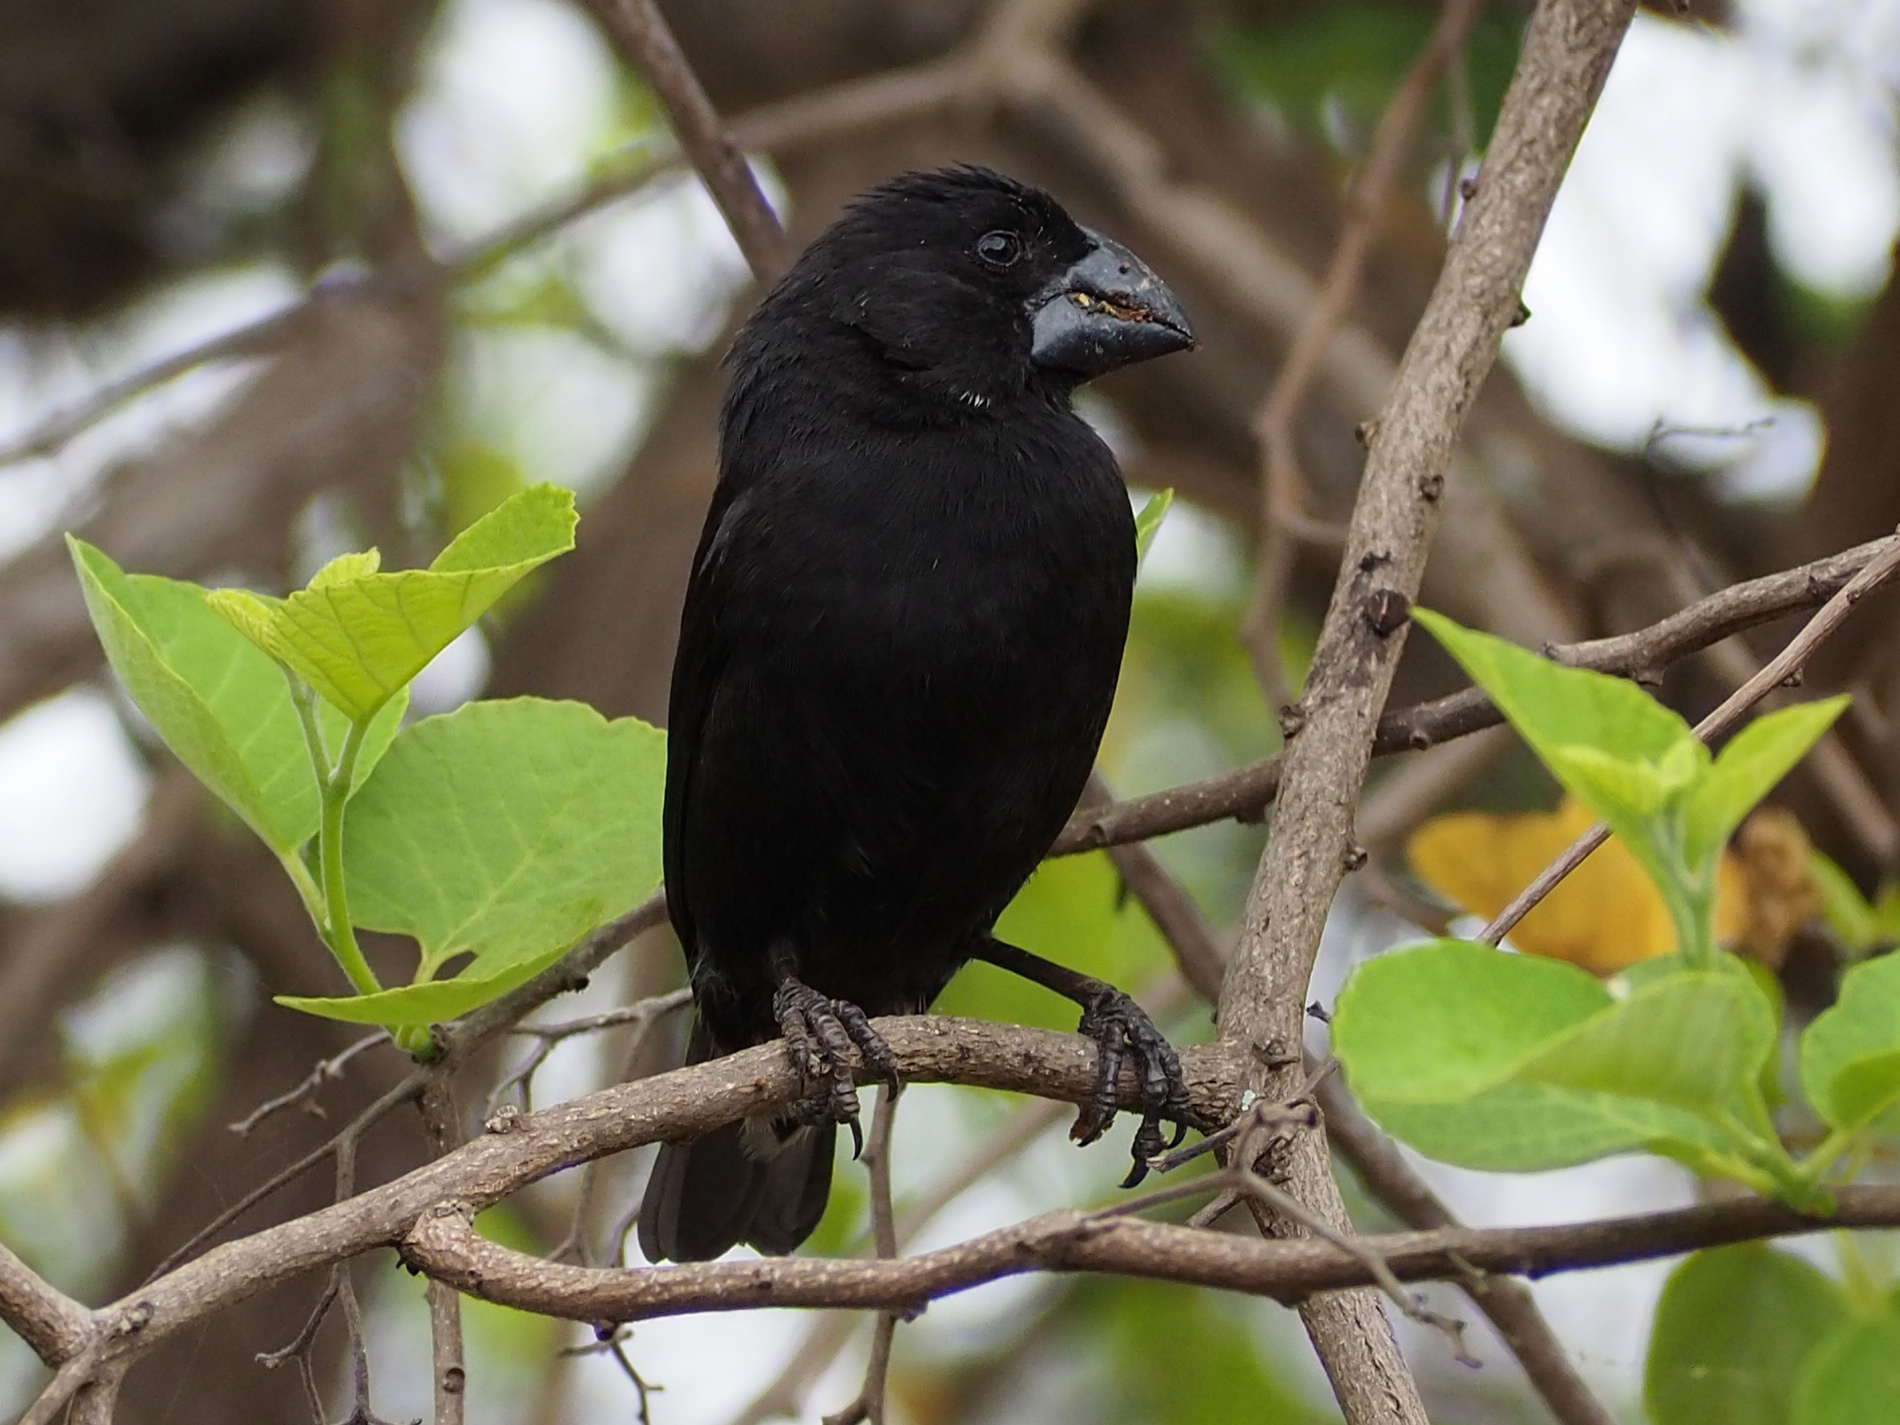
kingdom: Animalia
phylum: Chordata
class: Aves
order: Passeriformes
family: Thraupidae
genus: Geospiza
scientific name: Geospiza fortis
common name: Medium ground finch
